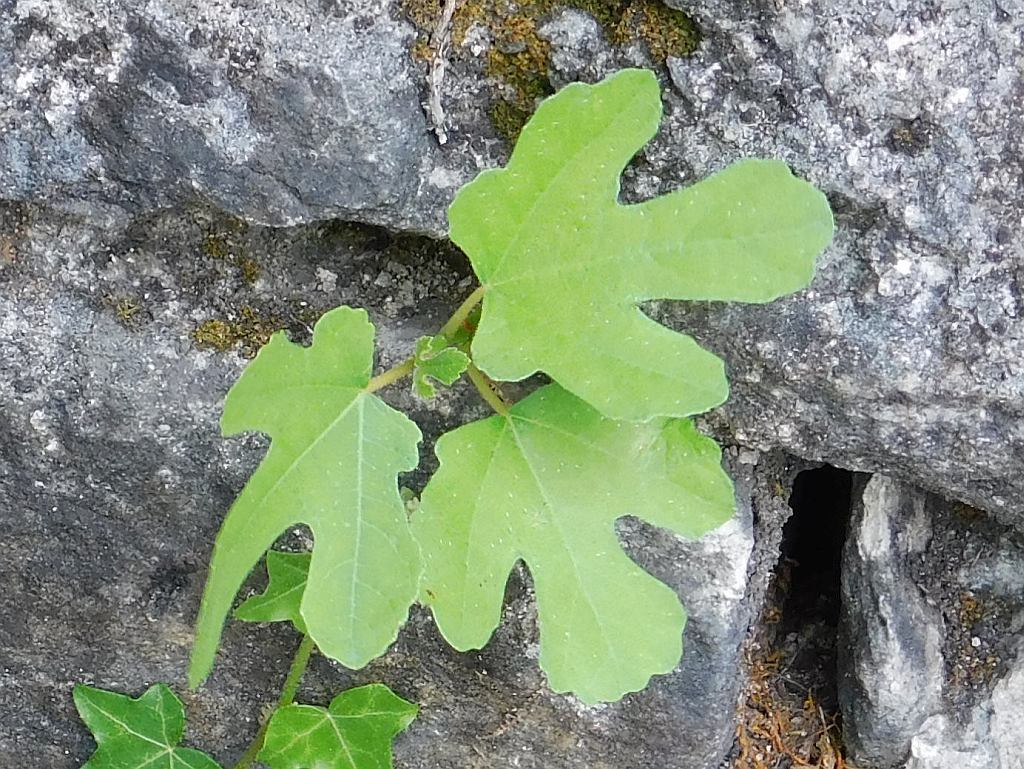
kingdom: Plantae
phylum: Tracheophyta
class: Magnoliopsida
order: Rosales
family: Moraceae
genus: Ficus
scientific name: Ficus carica
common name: Fig
